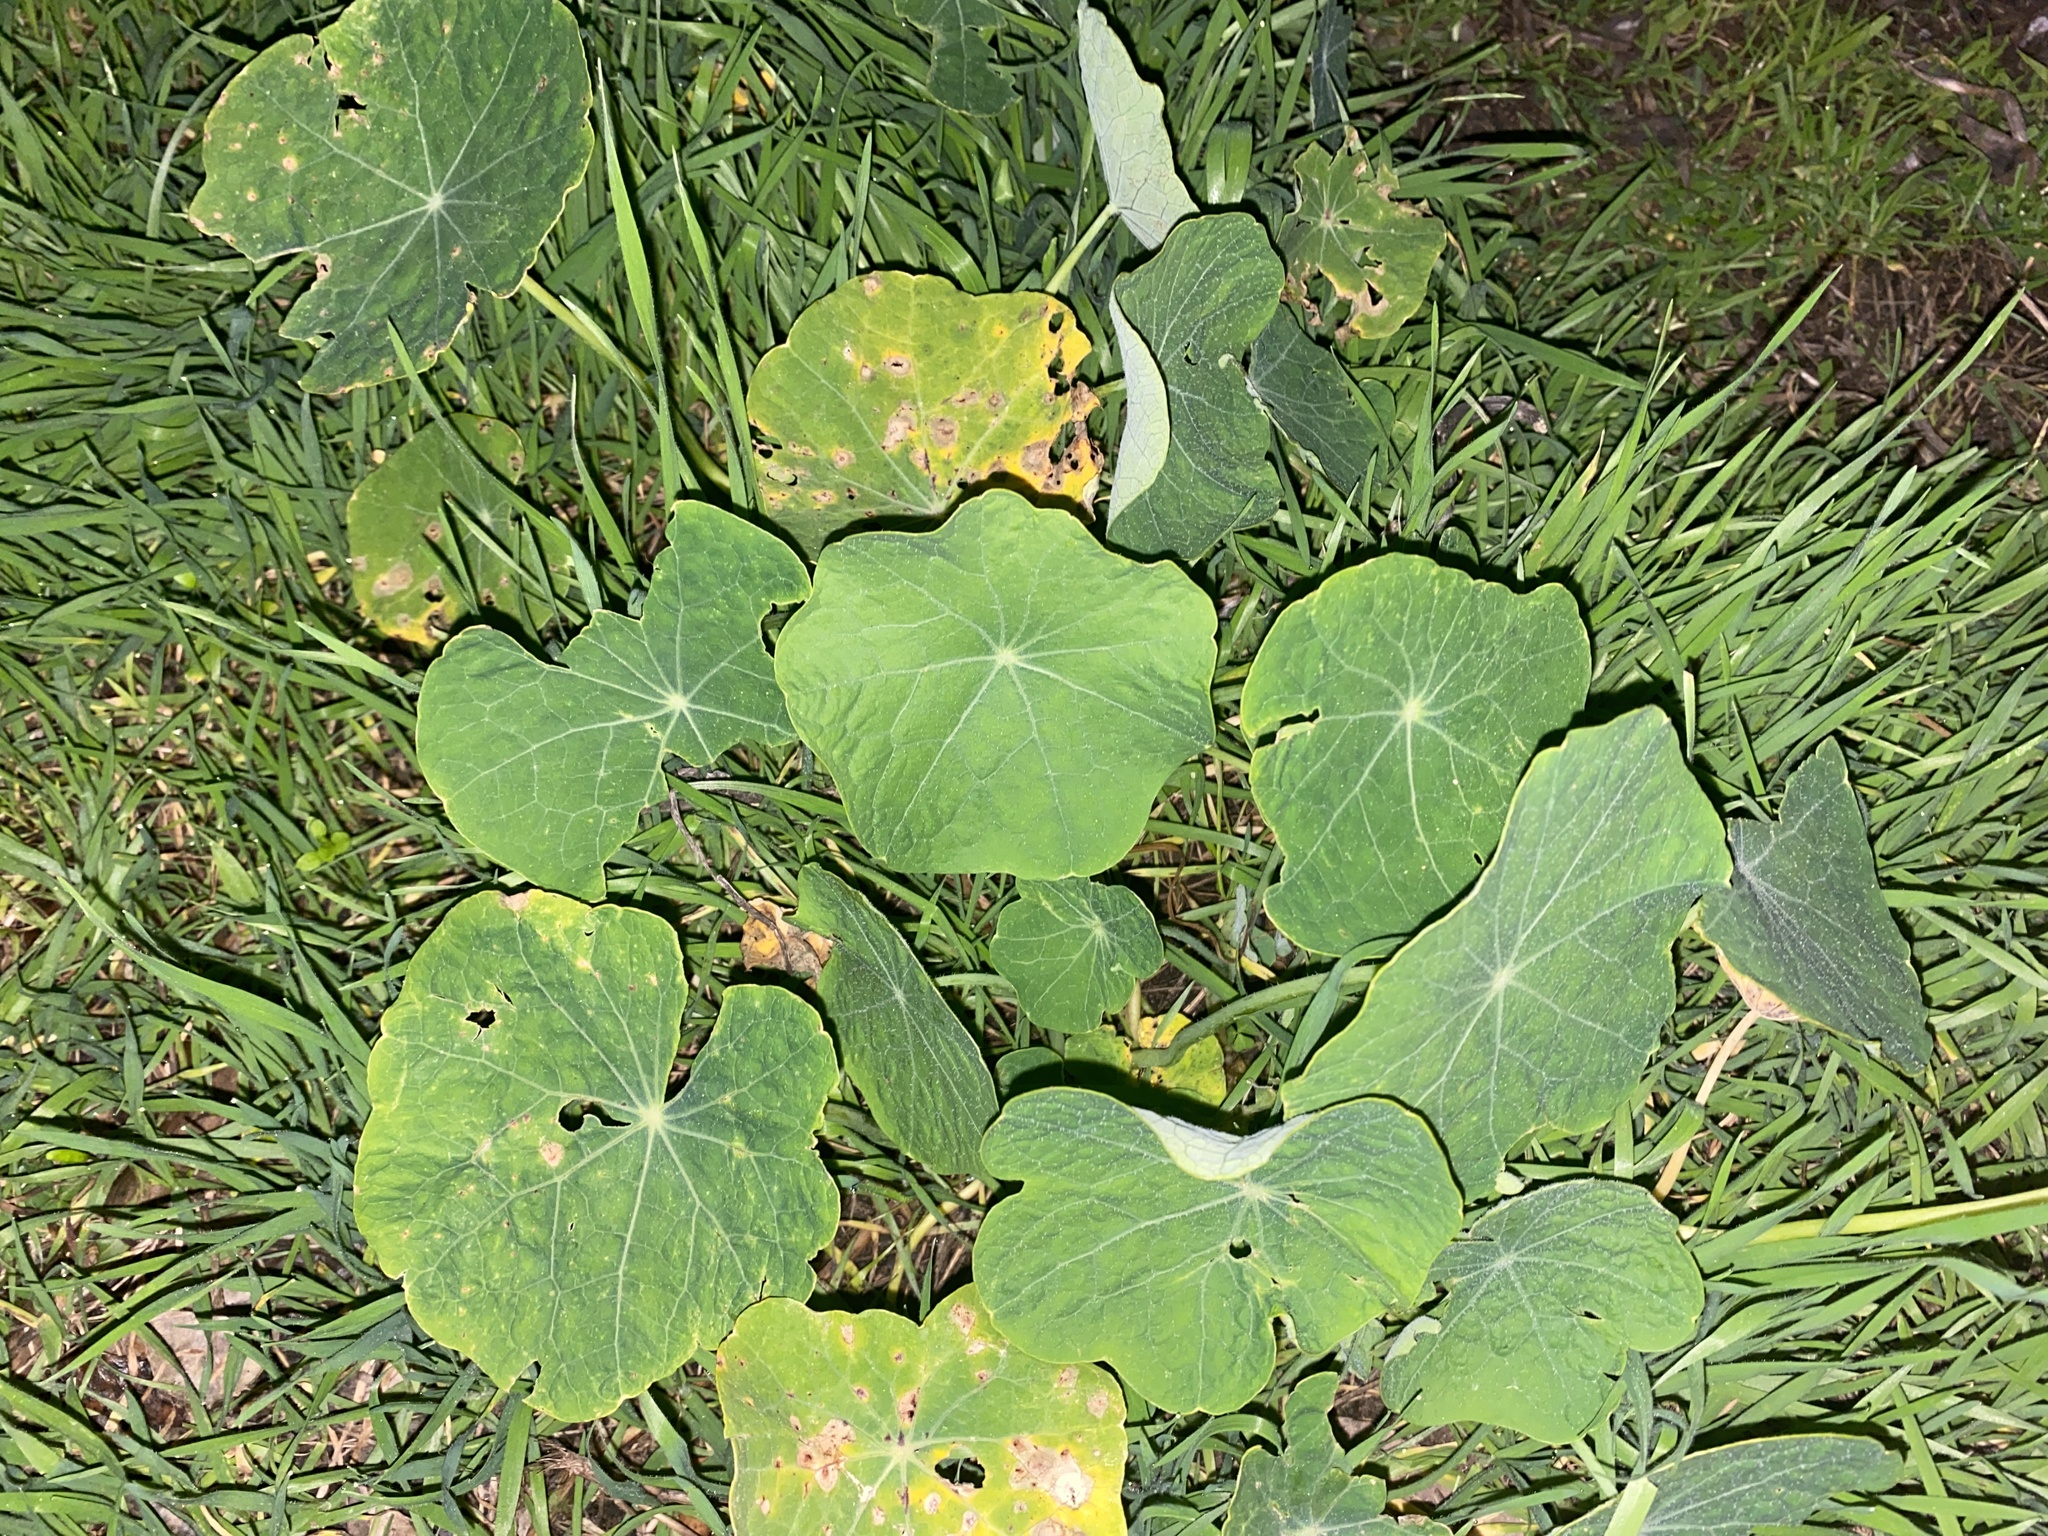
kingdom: Plantae
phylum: Tracheophyta
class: Magnoliopsida
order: Brassicales
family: Tropaeolaceae
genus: Tropaeolum
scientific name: Tropaeolum majus
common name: Nasturtium
